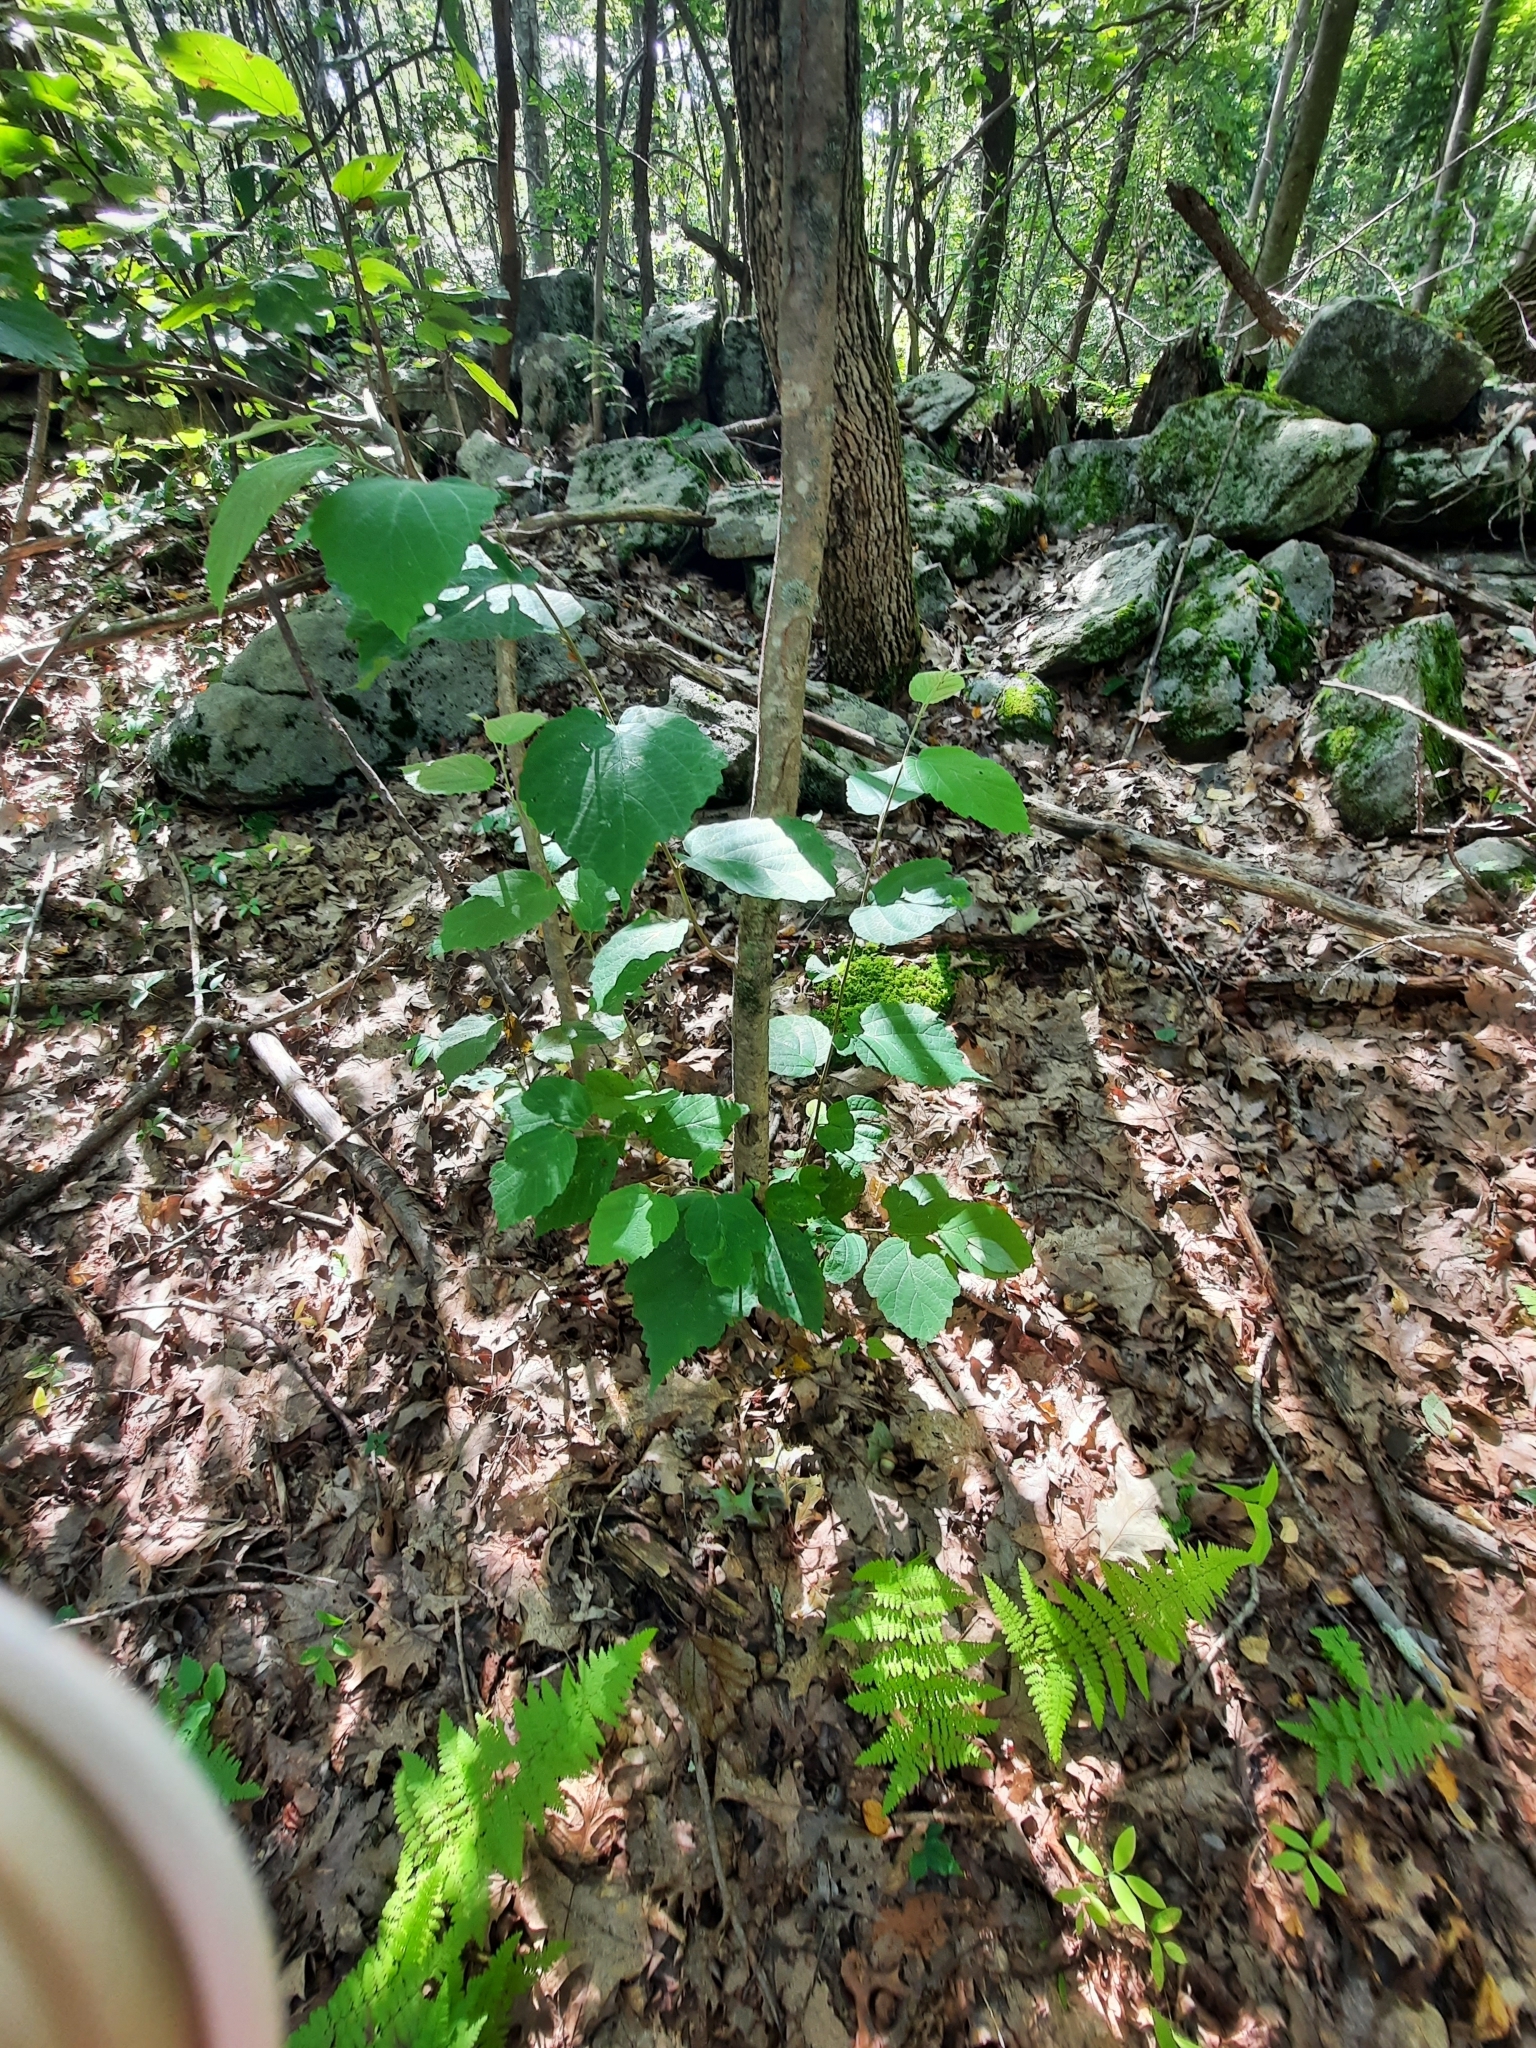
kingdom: Plantae
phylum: Tracheophyta
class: Magnoliopsida
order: Saxifragales
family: Hamamelidaceae
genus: Hamamelis
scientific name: Hamamelis virginiana
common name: Witch-hazel
